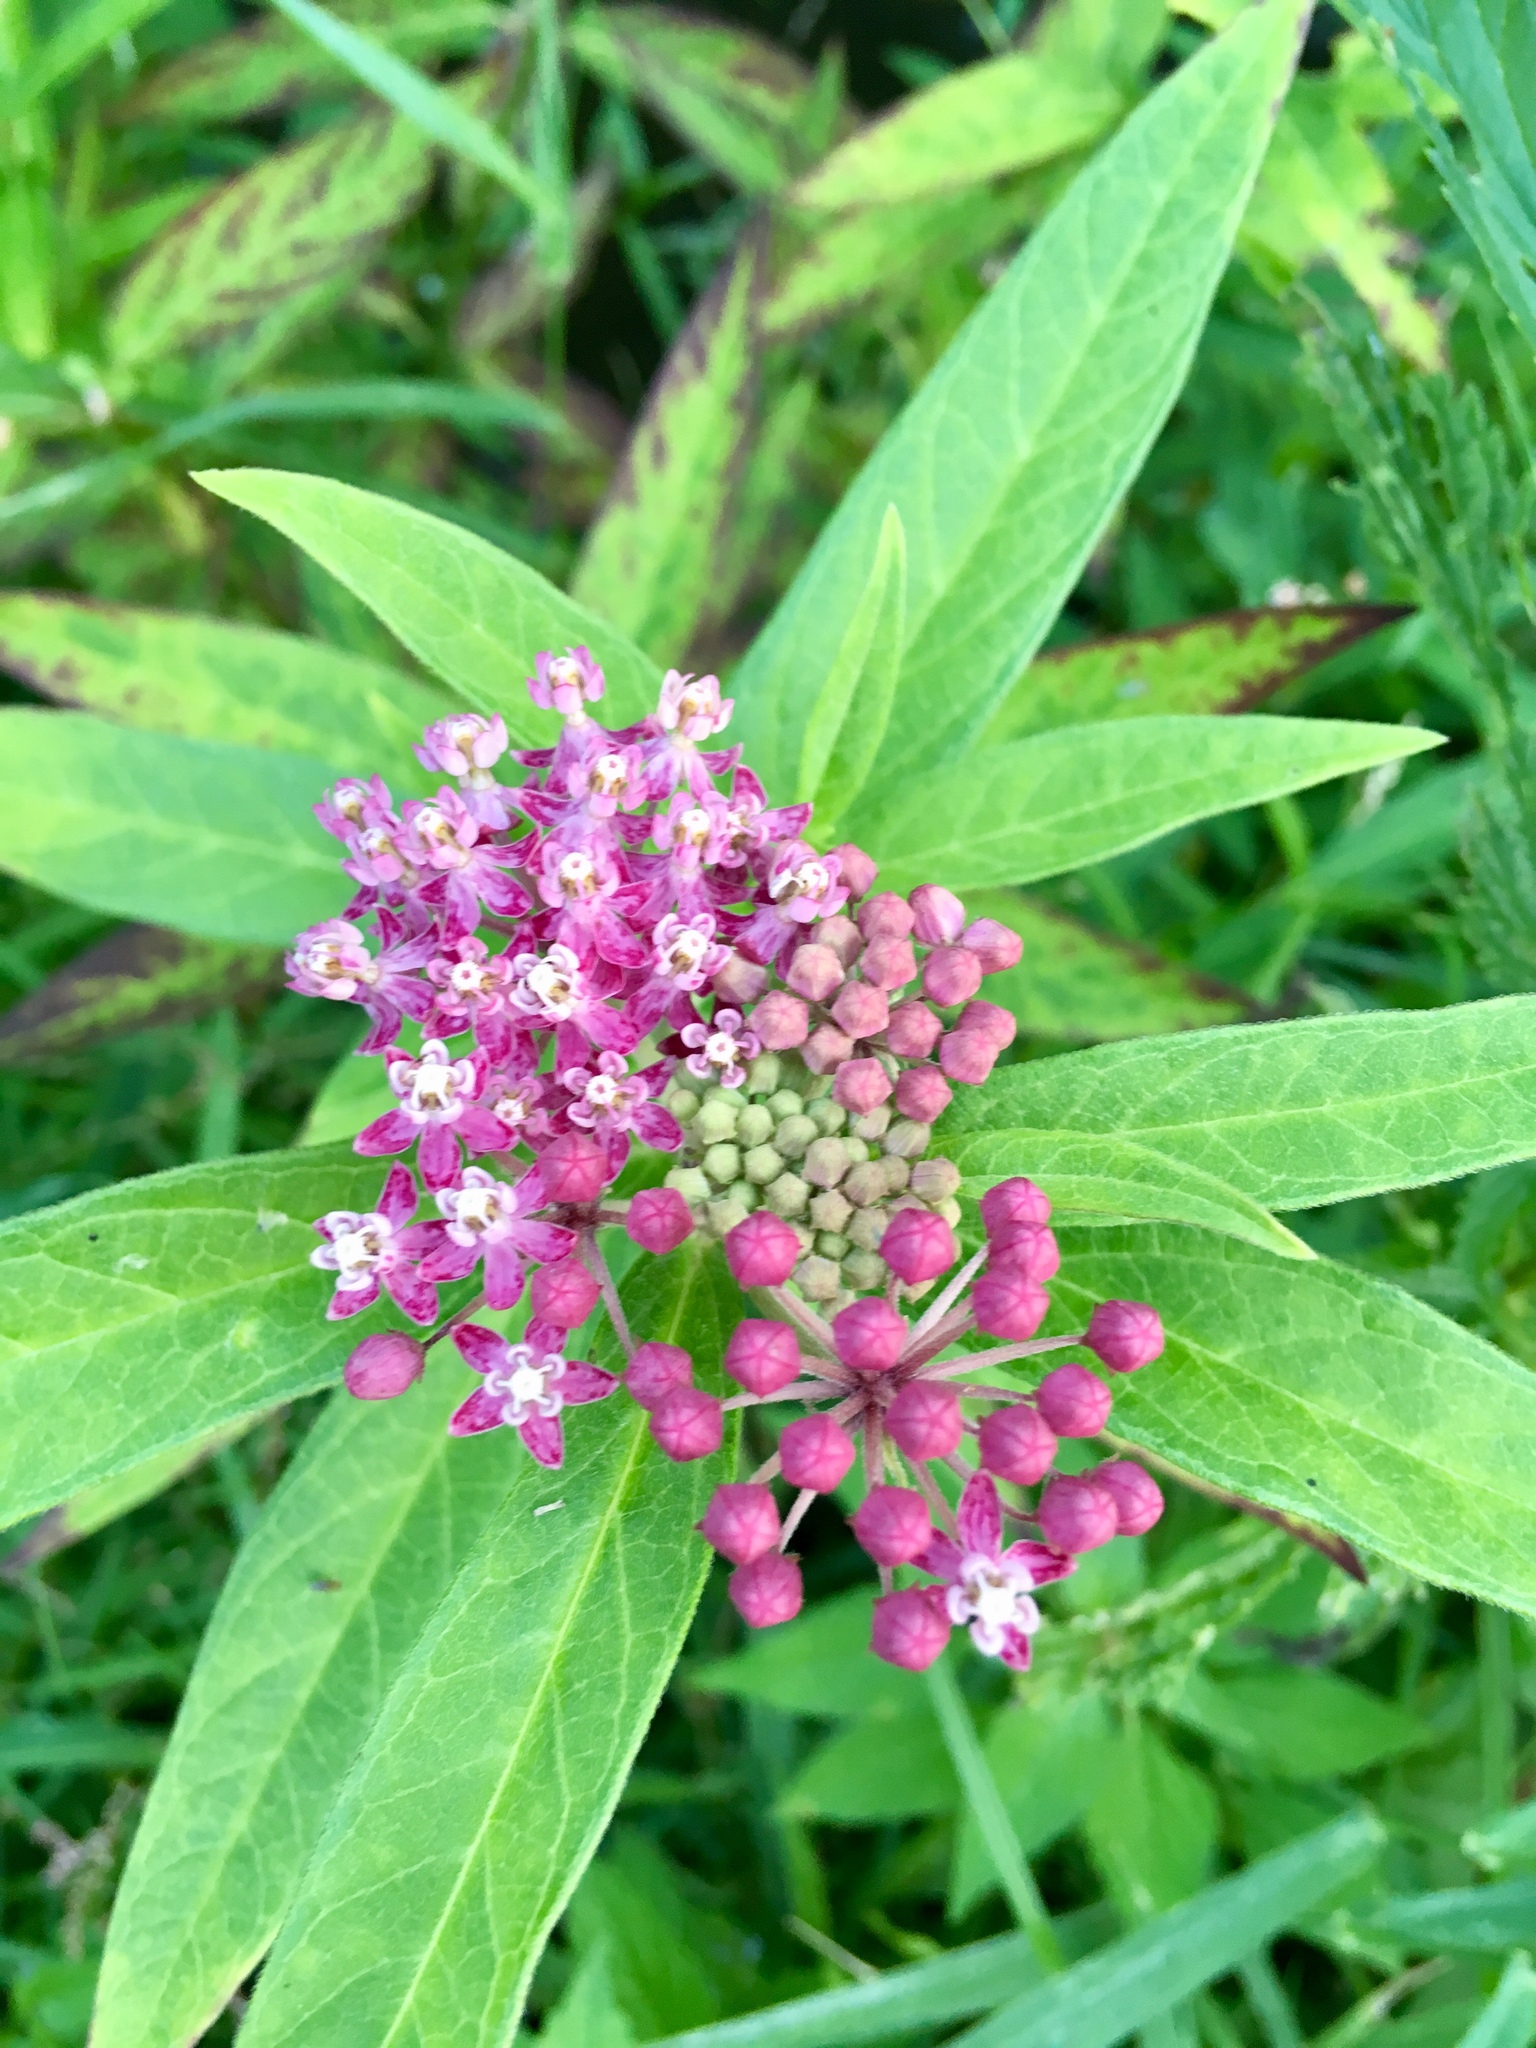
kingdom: Plantae
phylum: Tracheophyta
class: Magnoliopsida
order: Gentianales
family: Apocynaceae
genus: Asclepias
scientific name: Asclepias incarnata
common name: Swamp milkweed
